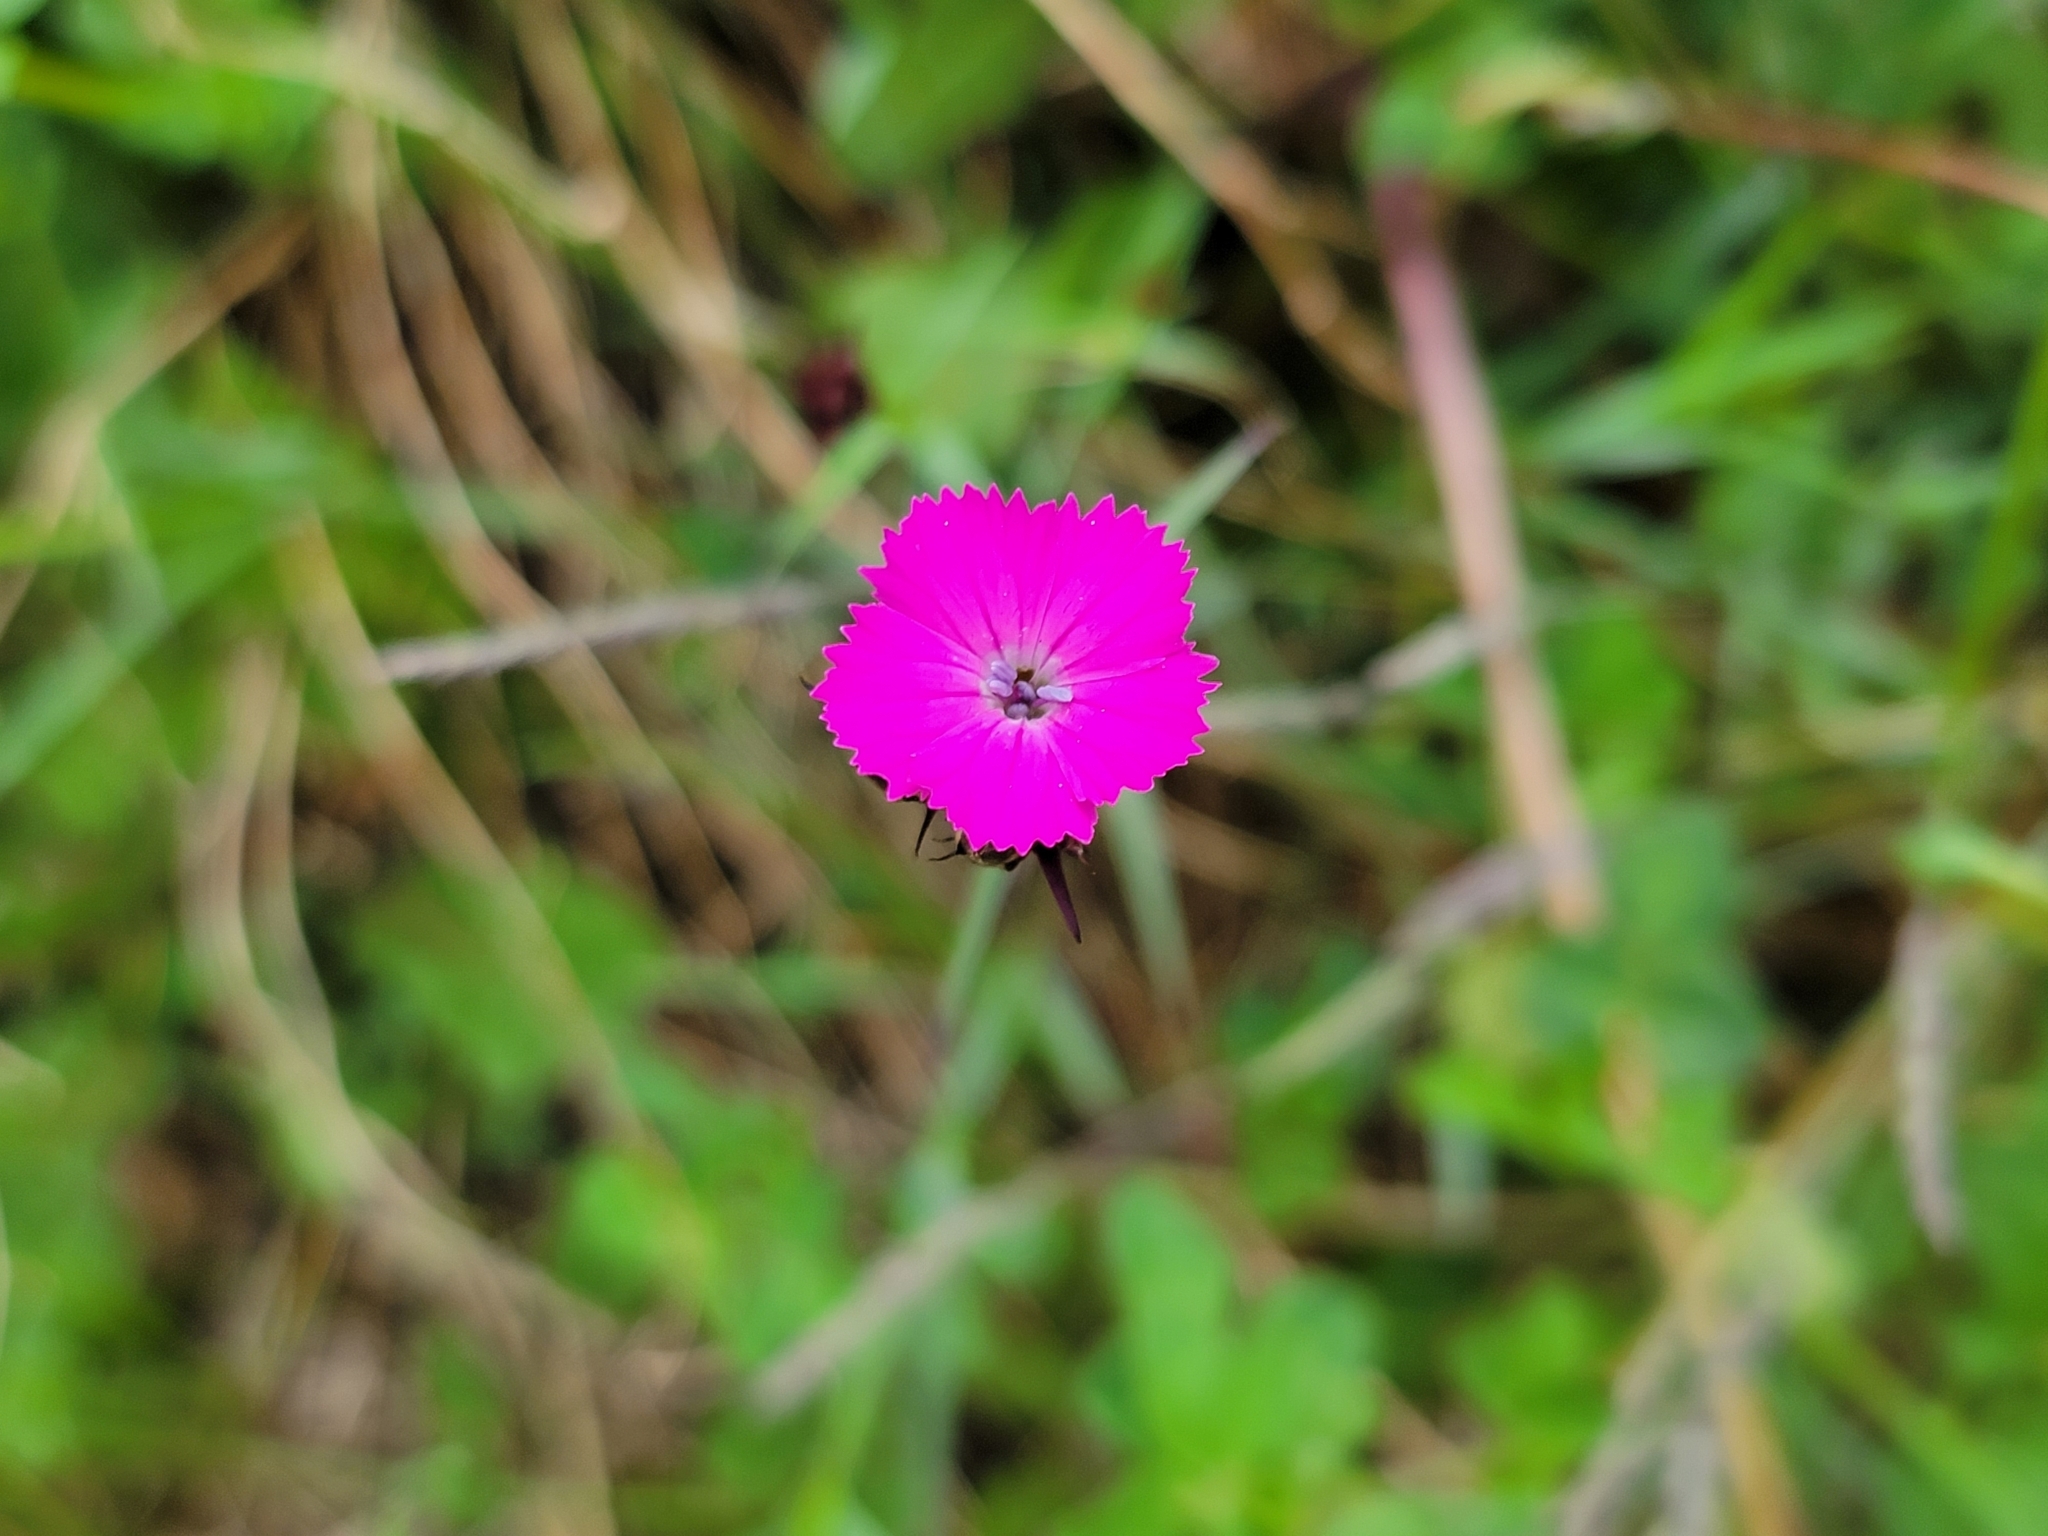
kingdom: Plantae
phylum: Tracheophyta
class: Magnoliopsida
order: Caryophyllales
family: Caryophyllaceae
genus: Dianthus
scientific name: Dianthus carthusianorum
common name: Carthusian pink
